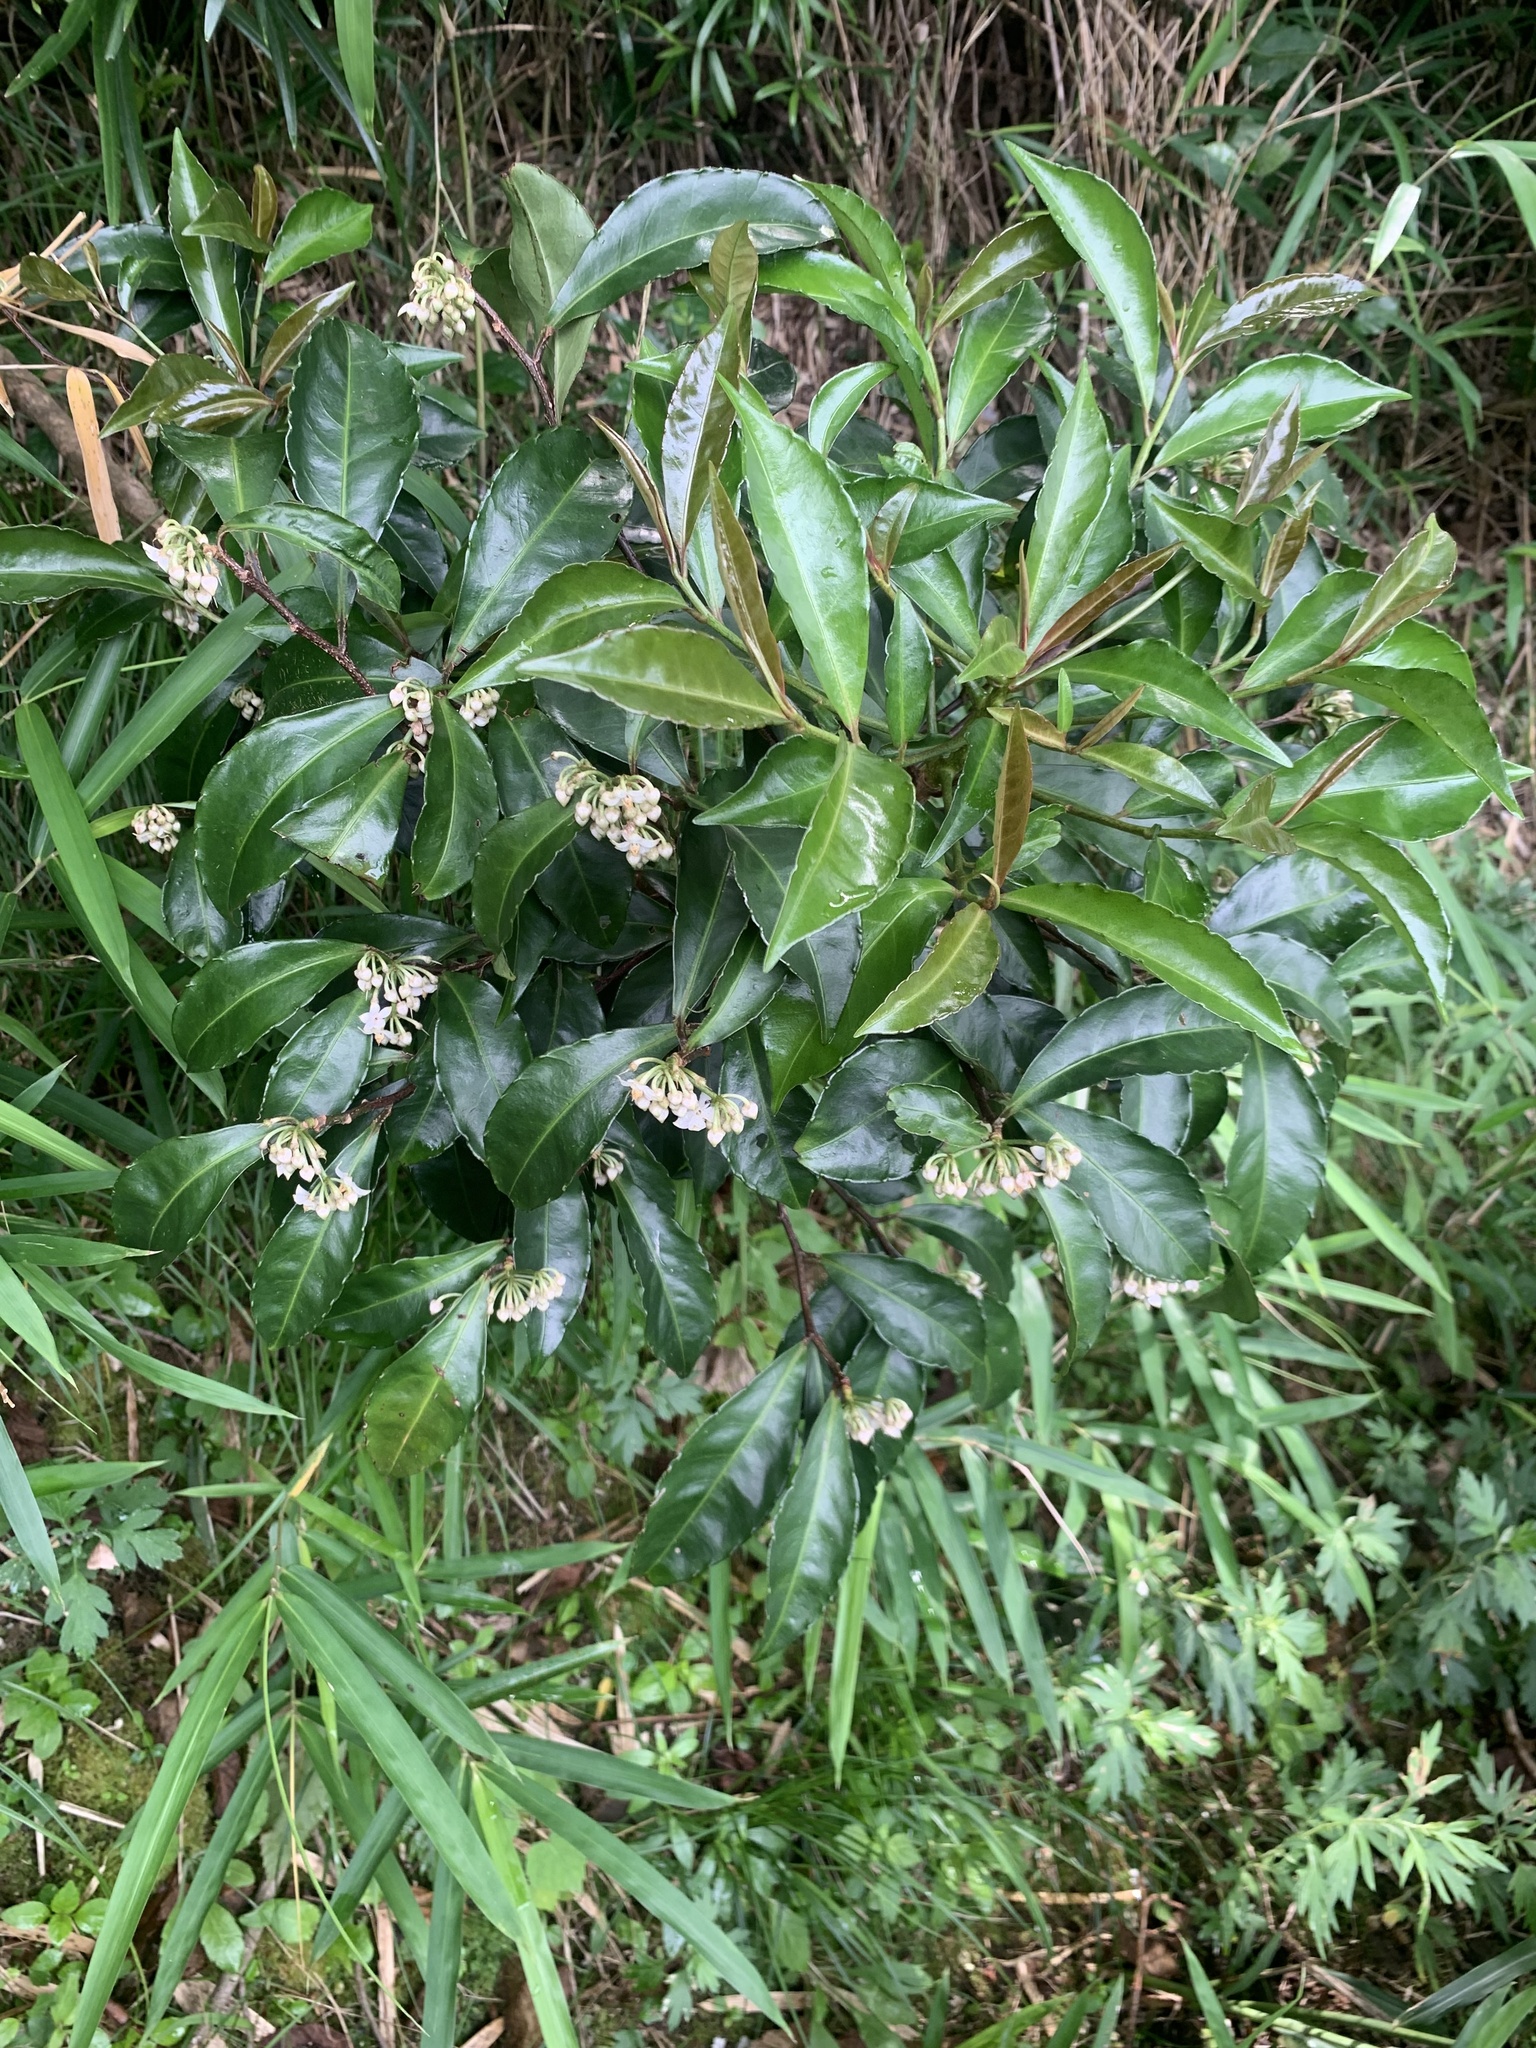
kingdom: Plantae
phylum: Tracheophyta
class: Magnoliopsida
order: Ericales
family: Primulaceae
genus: Ardisia
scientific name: Ardisia crenata
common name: Hen's eyes
